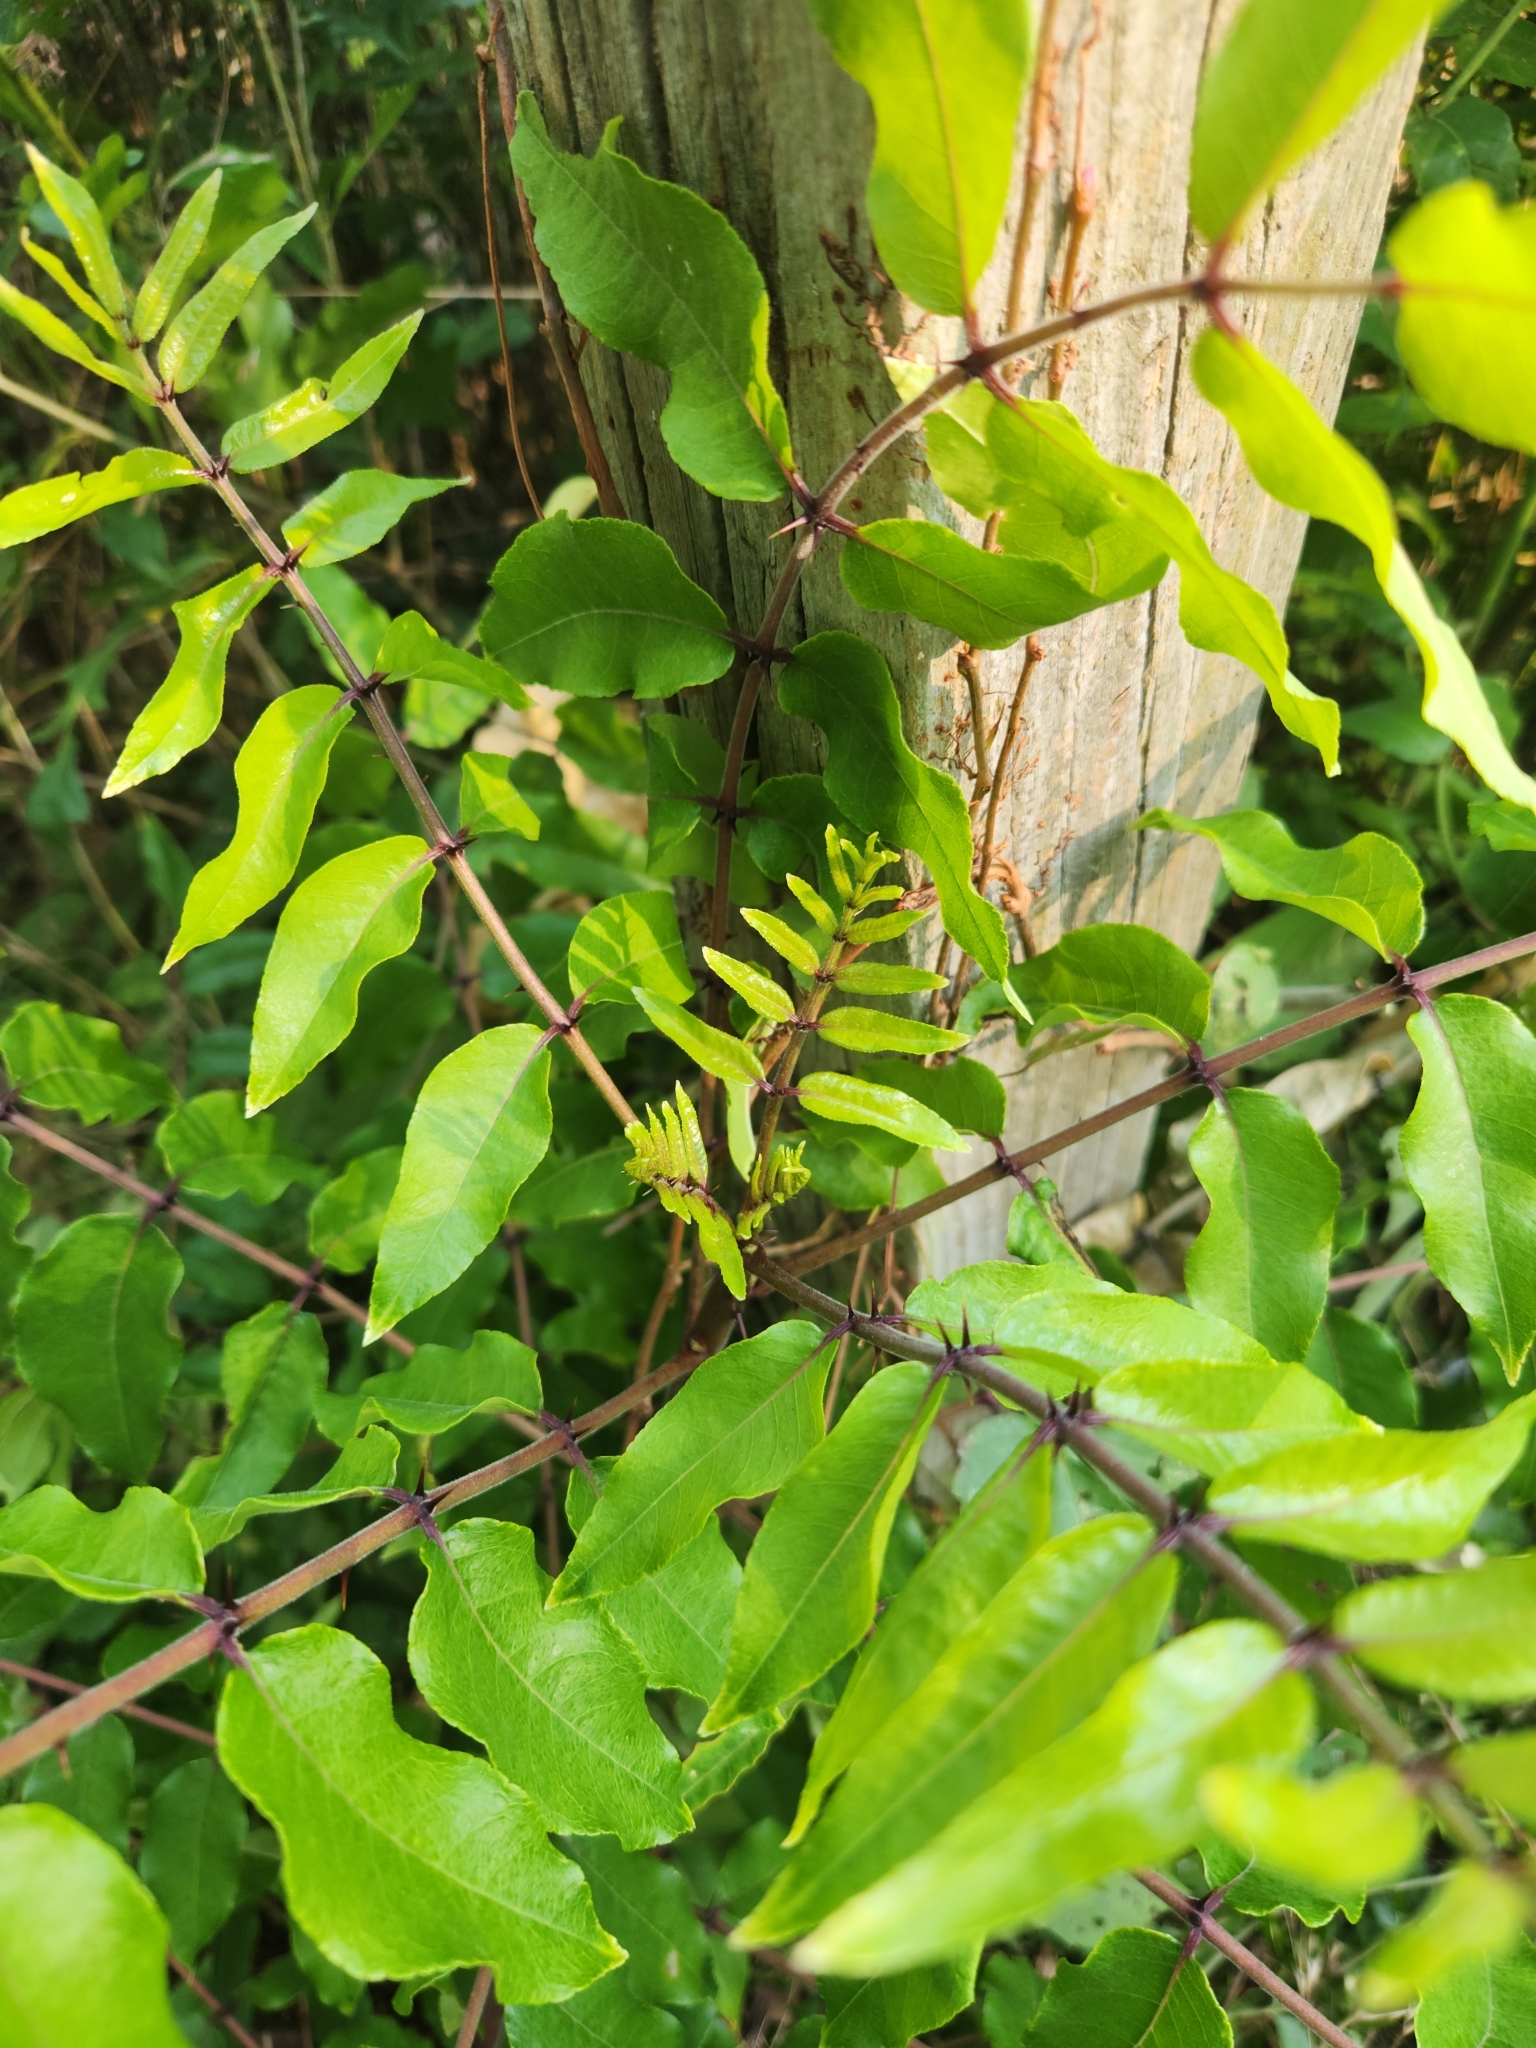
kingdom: Plantae
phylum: Tracheophyta
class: Magnoliopsida
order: Sapindales
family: Rutaceae
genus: Zanthoxylum
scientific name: Zanthoxylum clava-herculis
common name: Hercules'-club
